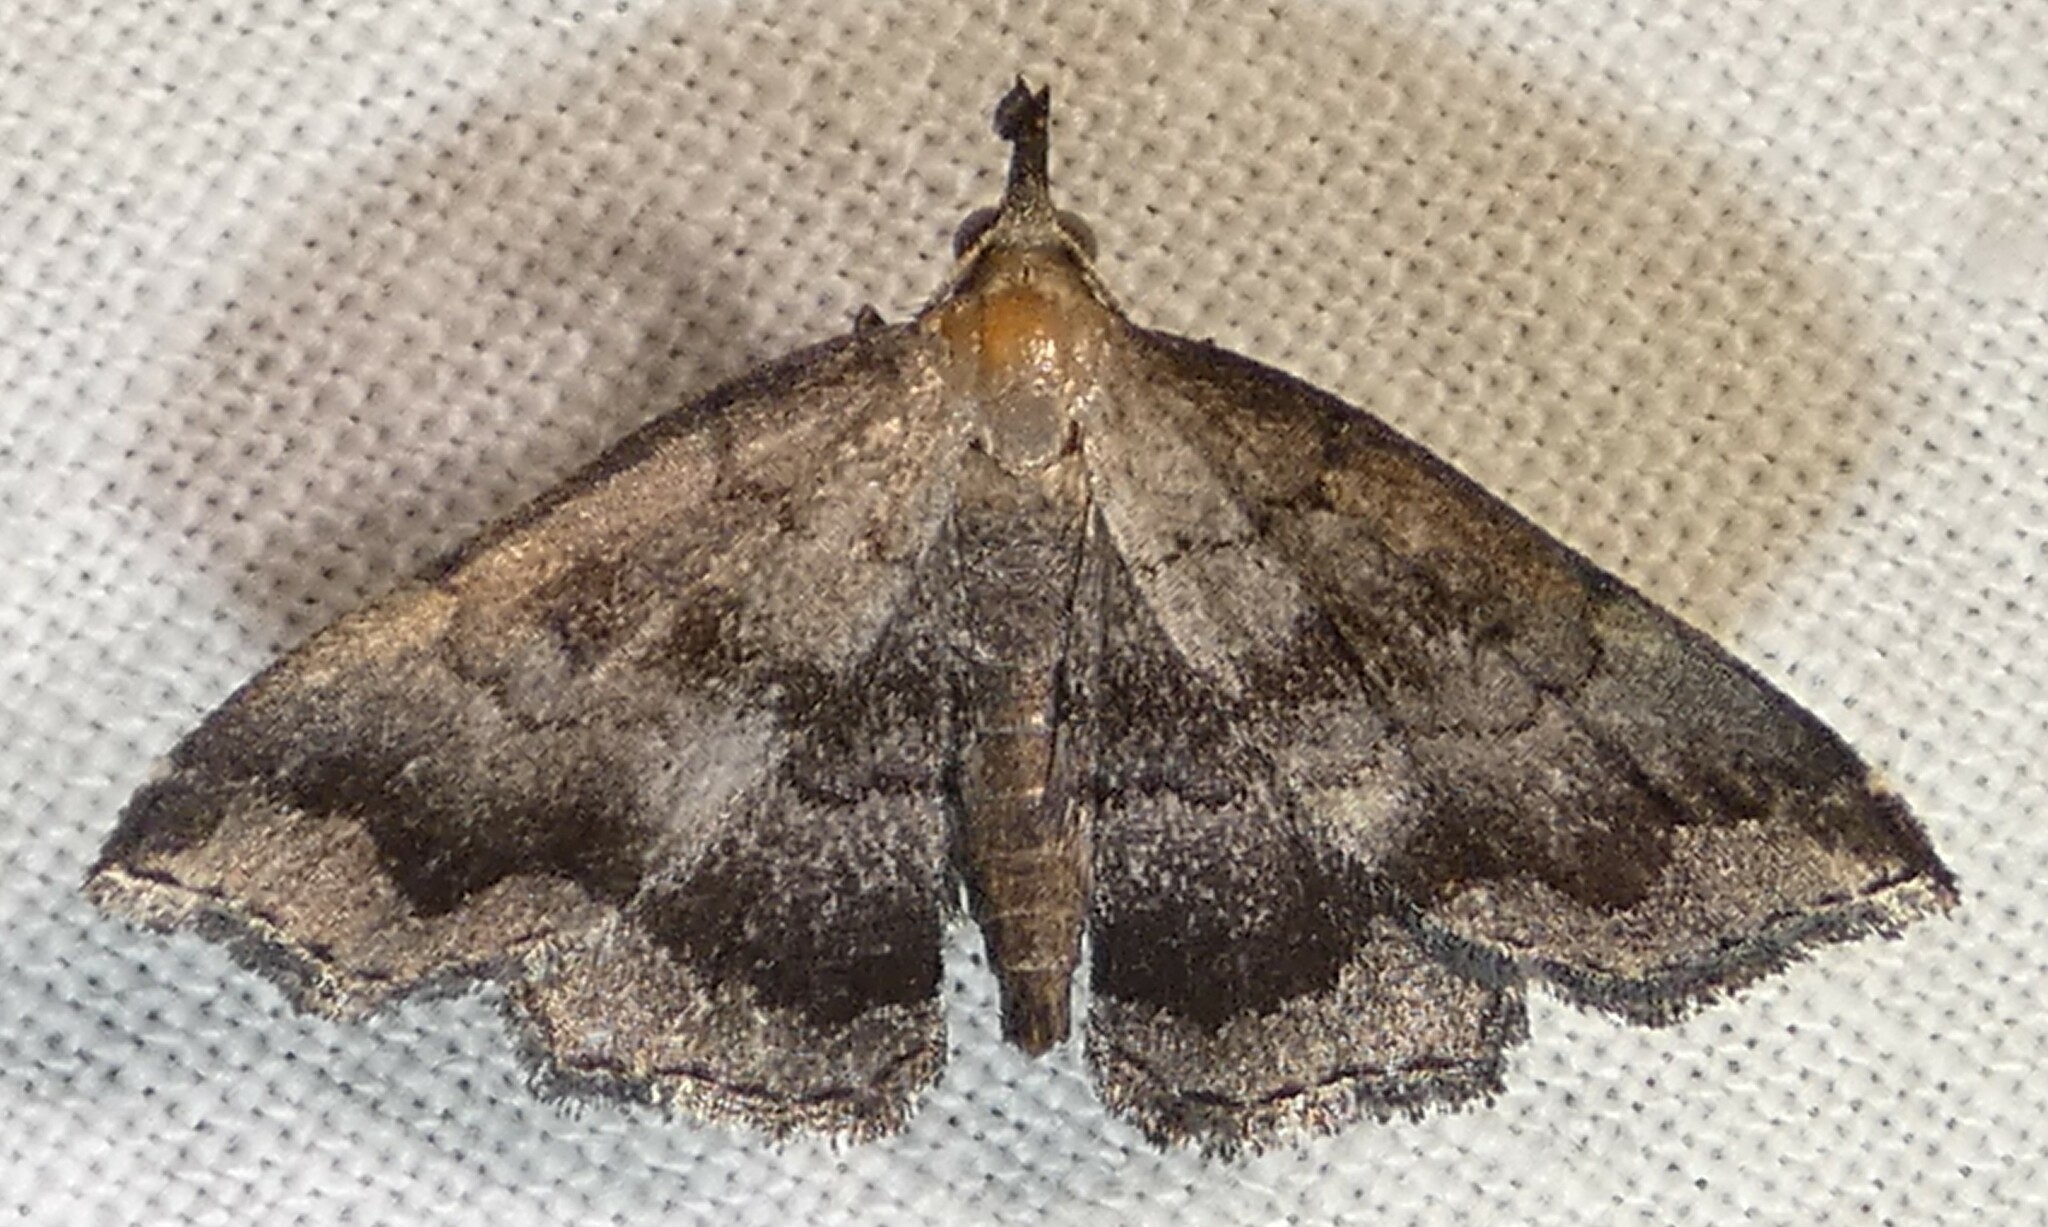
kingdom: Animalia
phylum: Arthropoda
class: Insecta
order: Lepidoptera
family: Erebidae
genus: Phalaenostola
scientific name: Phalaenostola larentioides
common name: Black-banded owlet
